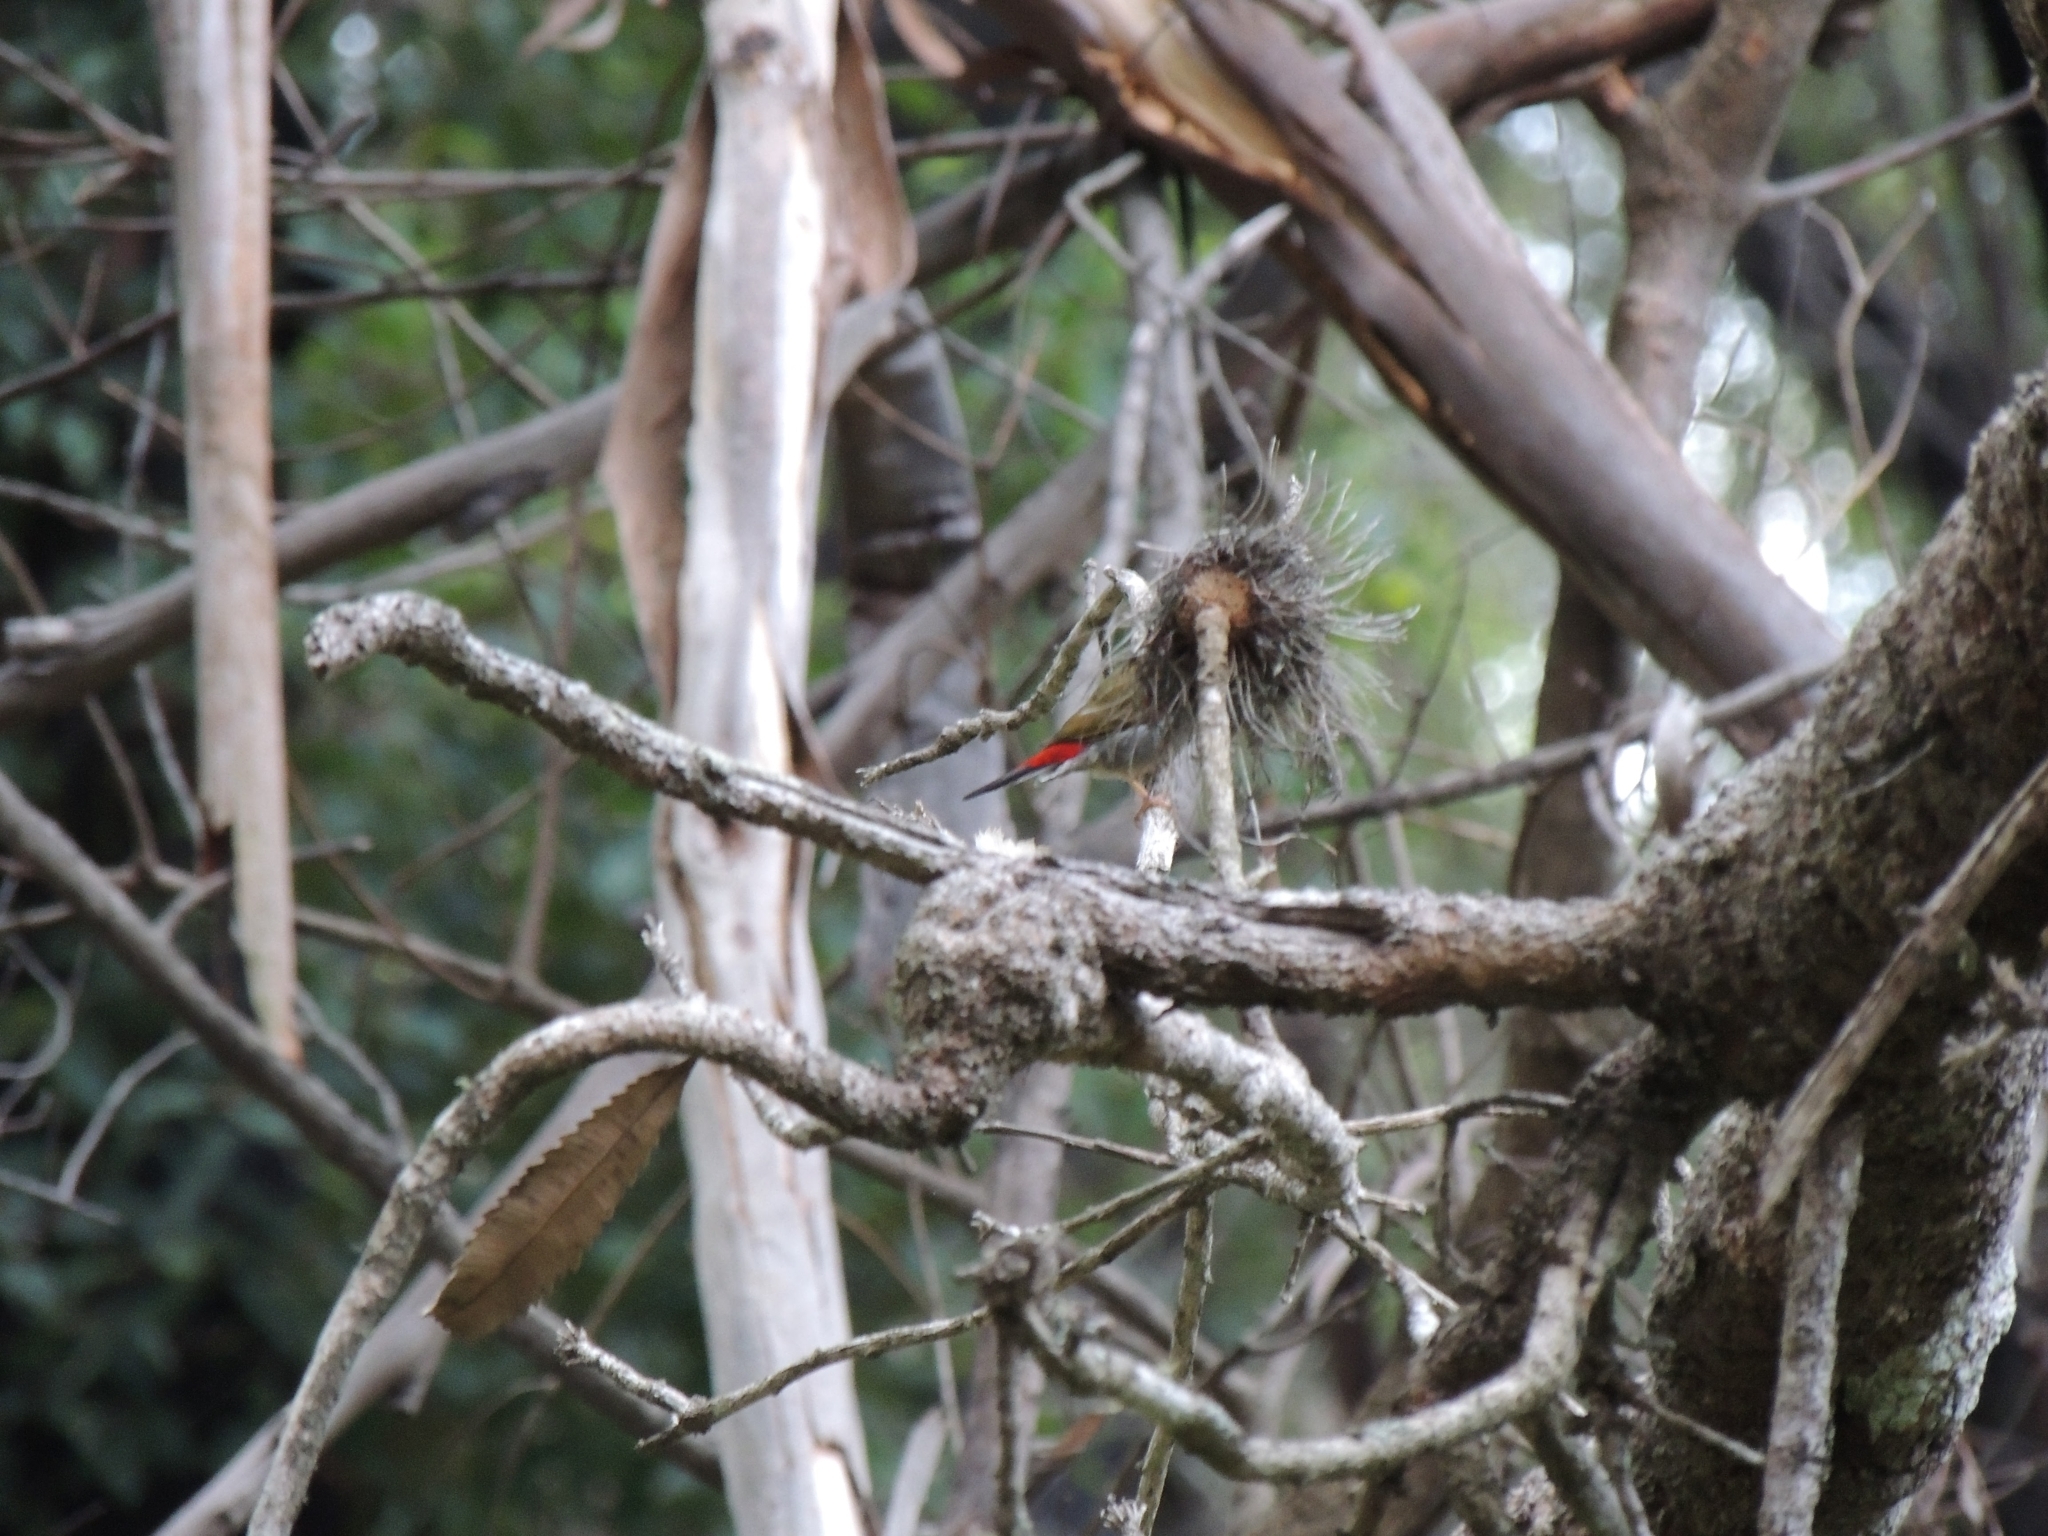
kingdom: Animalia
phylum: Chordata
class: Aves
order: Passeriformes
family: Estrildidae
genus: Neochmia
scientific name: Neochmia temporalis
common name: Red-browed finch
